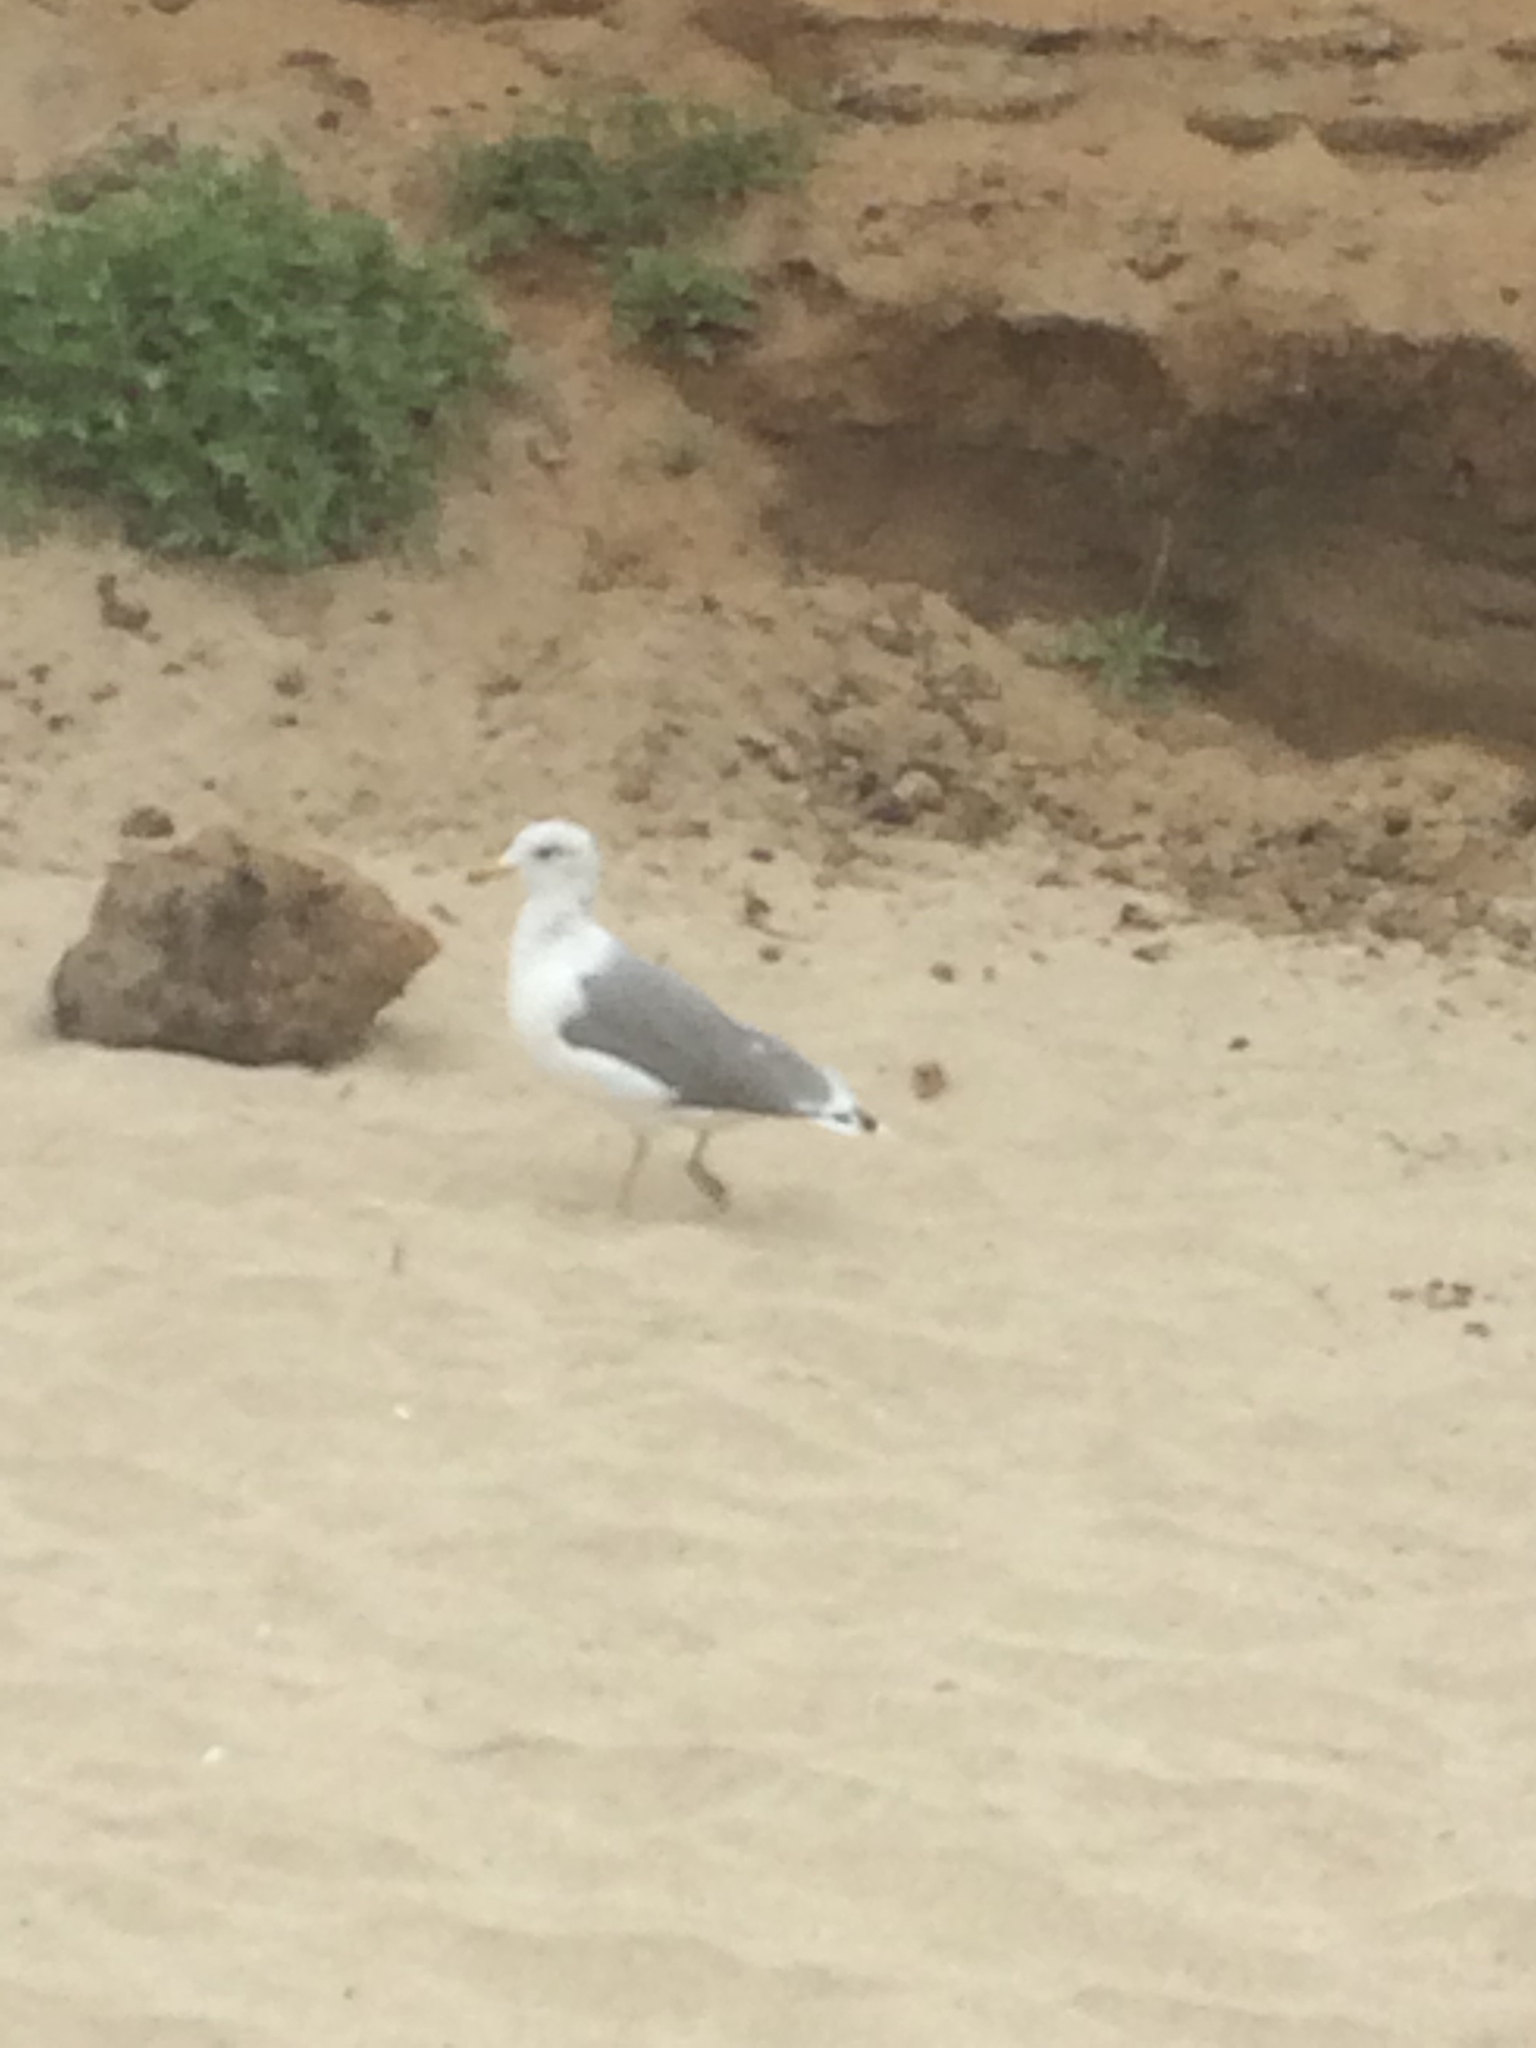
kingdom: Animalia
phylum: Chordata
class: Aves
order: Charadriiformes
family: Laridae
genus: Larus
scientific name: Larus californicus
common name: California gull
